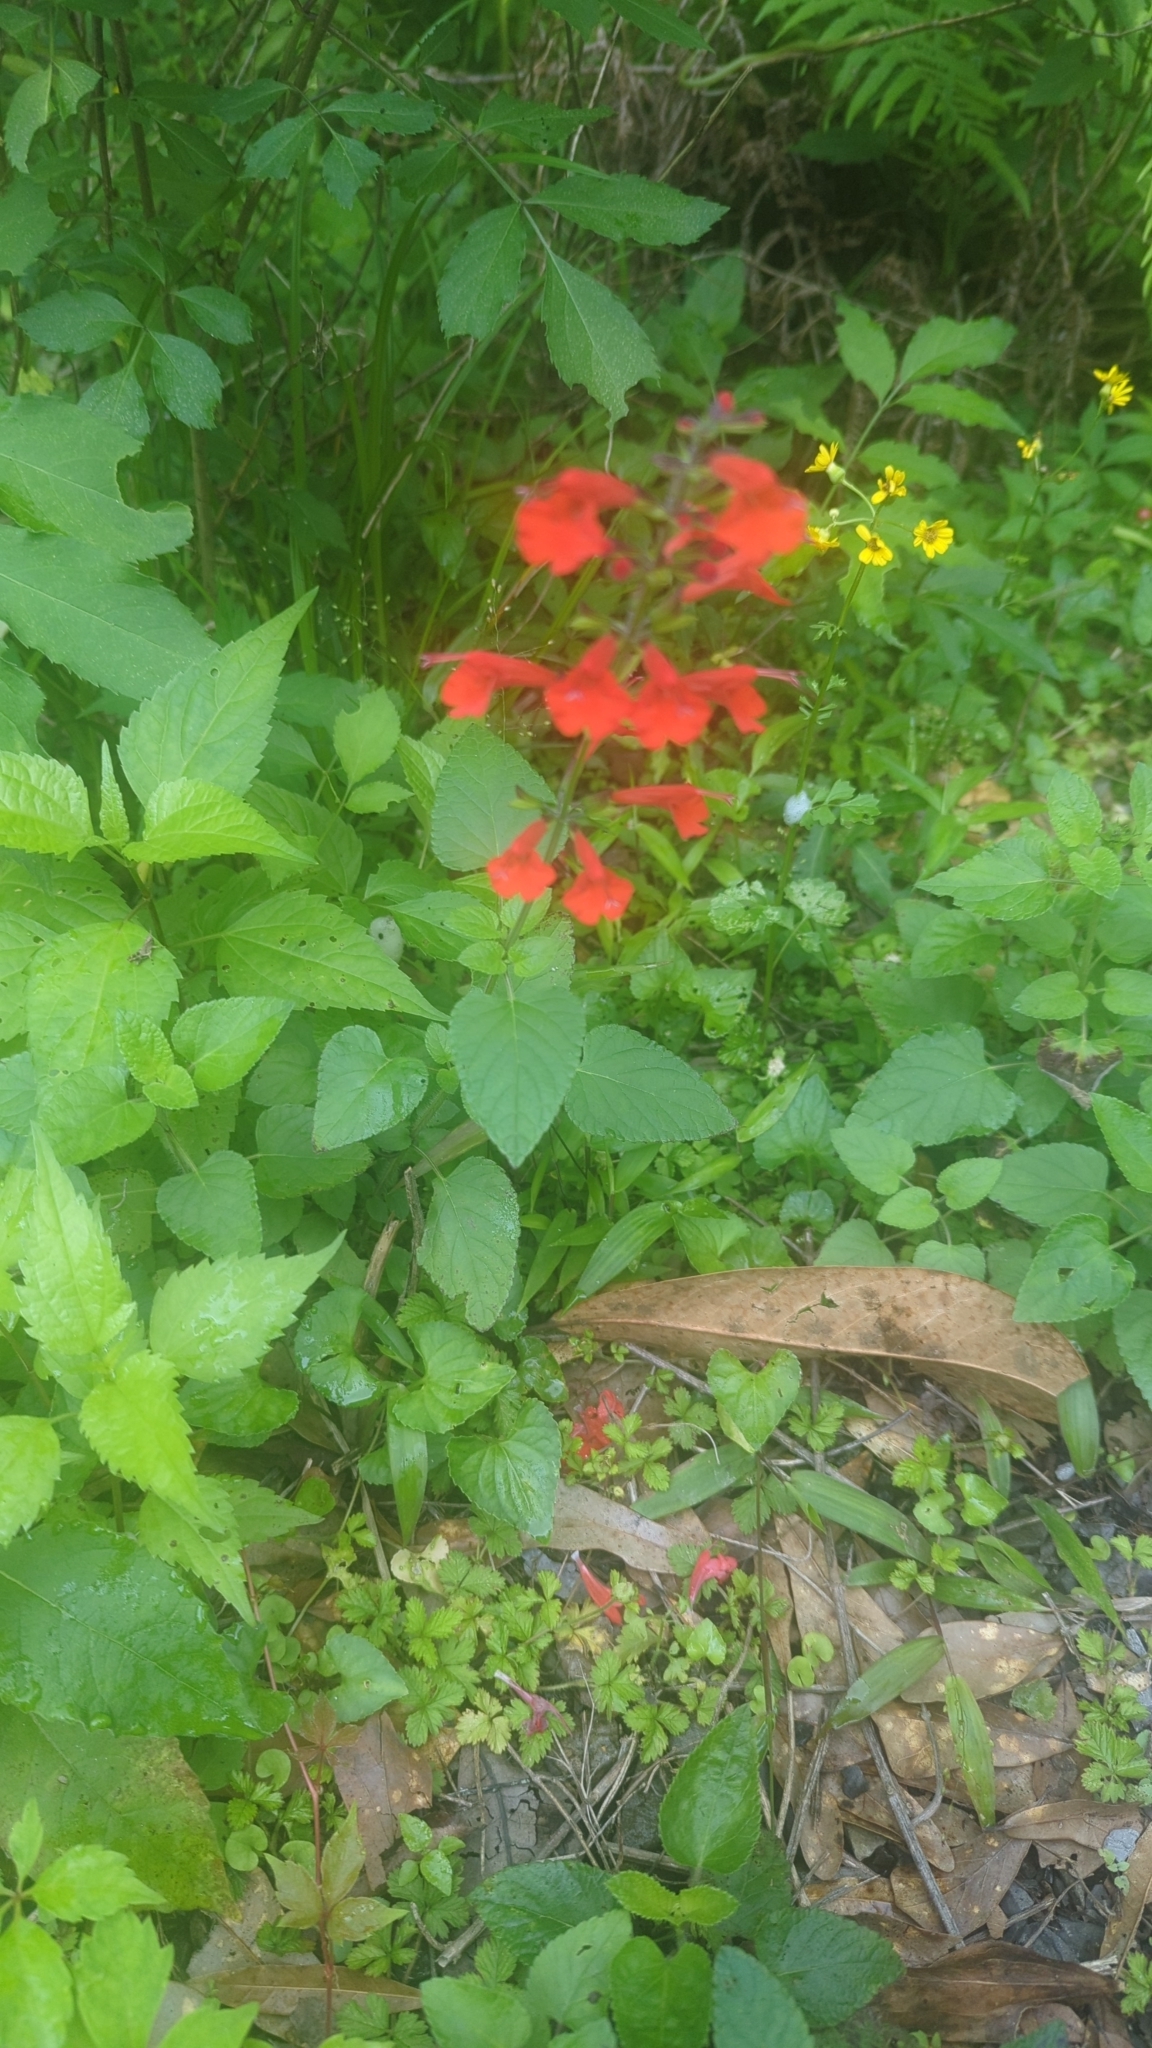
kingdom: Plantae
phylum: Tracheophyta
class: Magnoliopsida
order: Lamiales
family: Lamiaceae
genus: Salvia
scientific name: Salvia coccinea
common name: Blood sage
